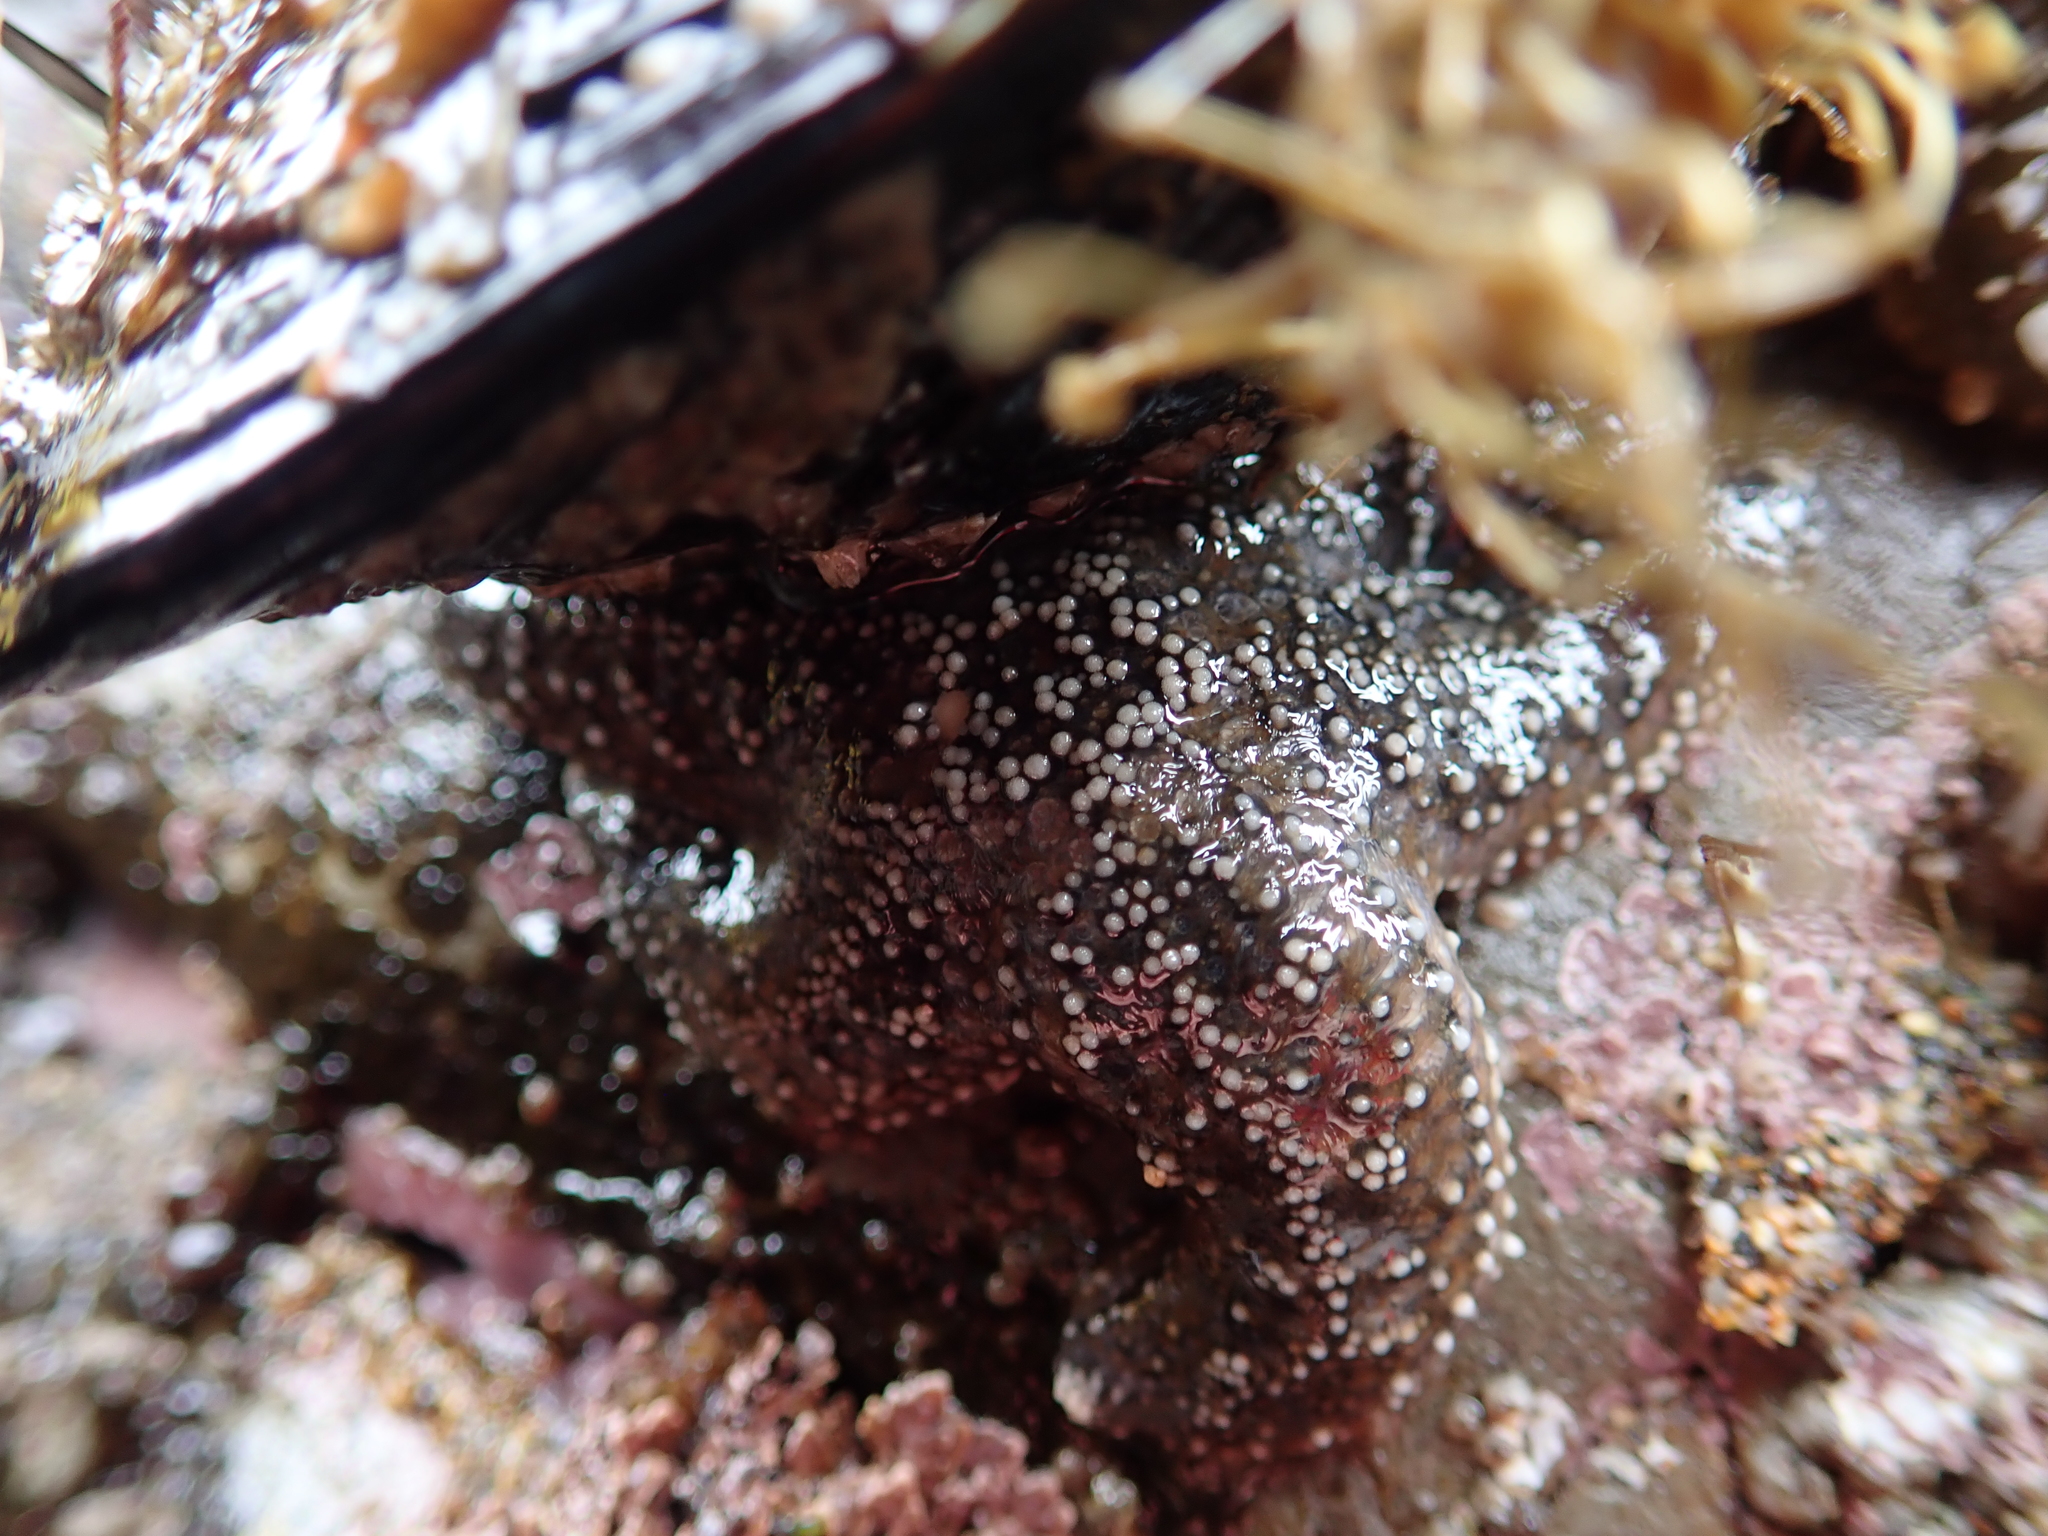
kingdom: Animalia
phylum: Echinodermata
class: Asteroidea
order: Forcipulatida
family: Asteriidae
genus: Pisaster
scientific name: Pisaster ochraceus
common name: Ochre stars
